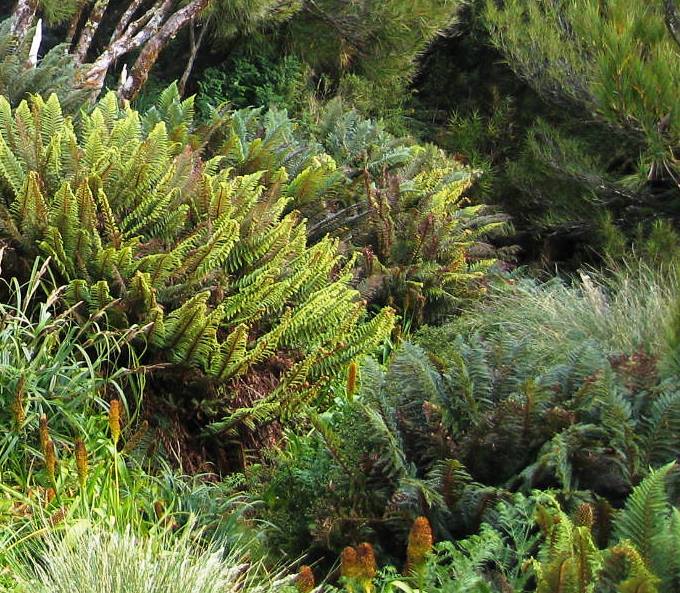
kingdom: Plantae
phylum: Tracheophyta
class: Polypodiopsida
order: Polypodiales
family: Dryopteridaceae
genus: Polystichum
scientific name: Polystichum vestitum
